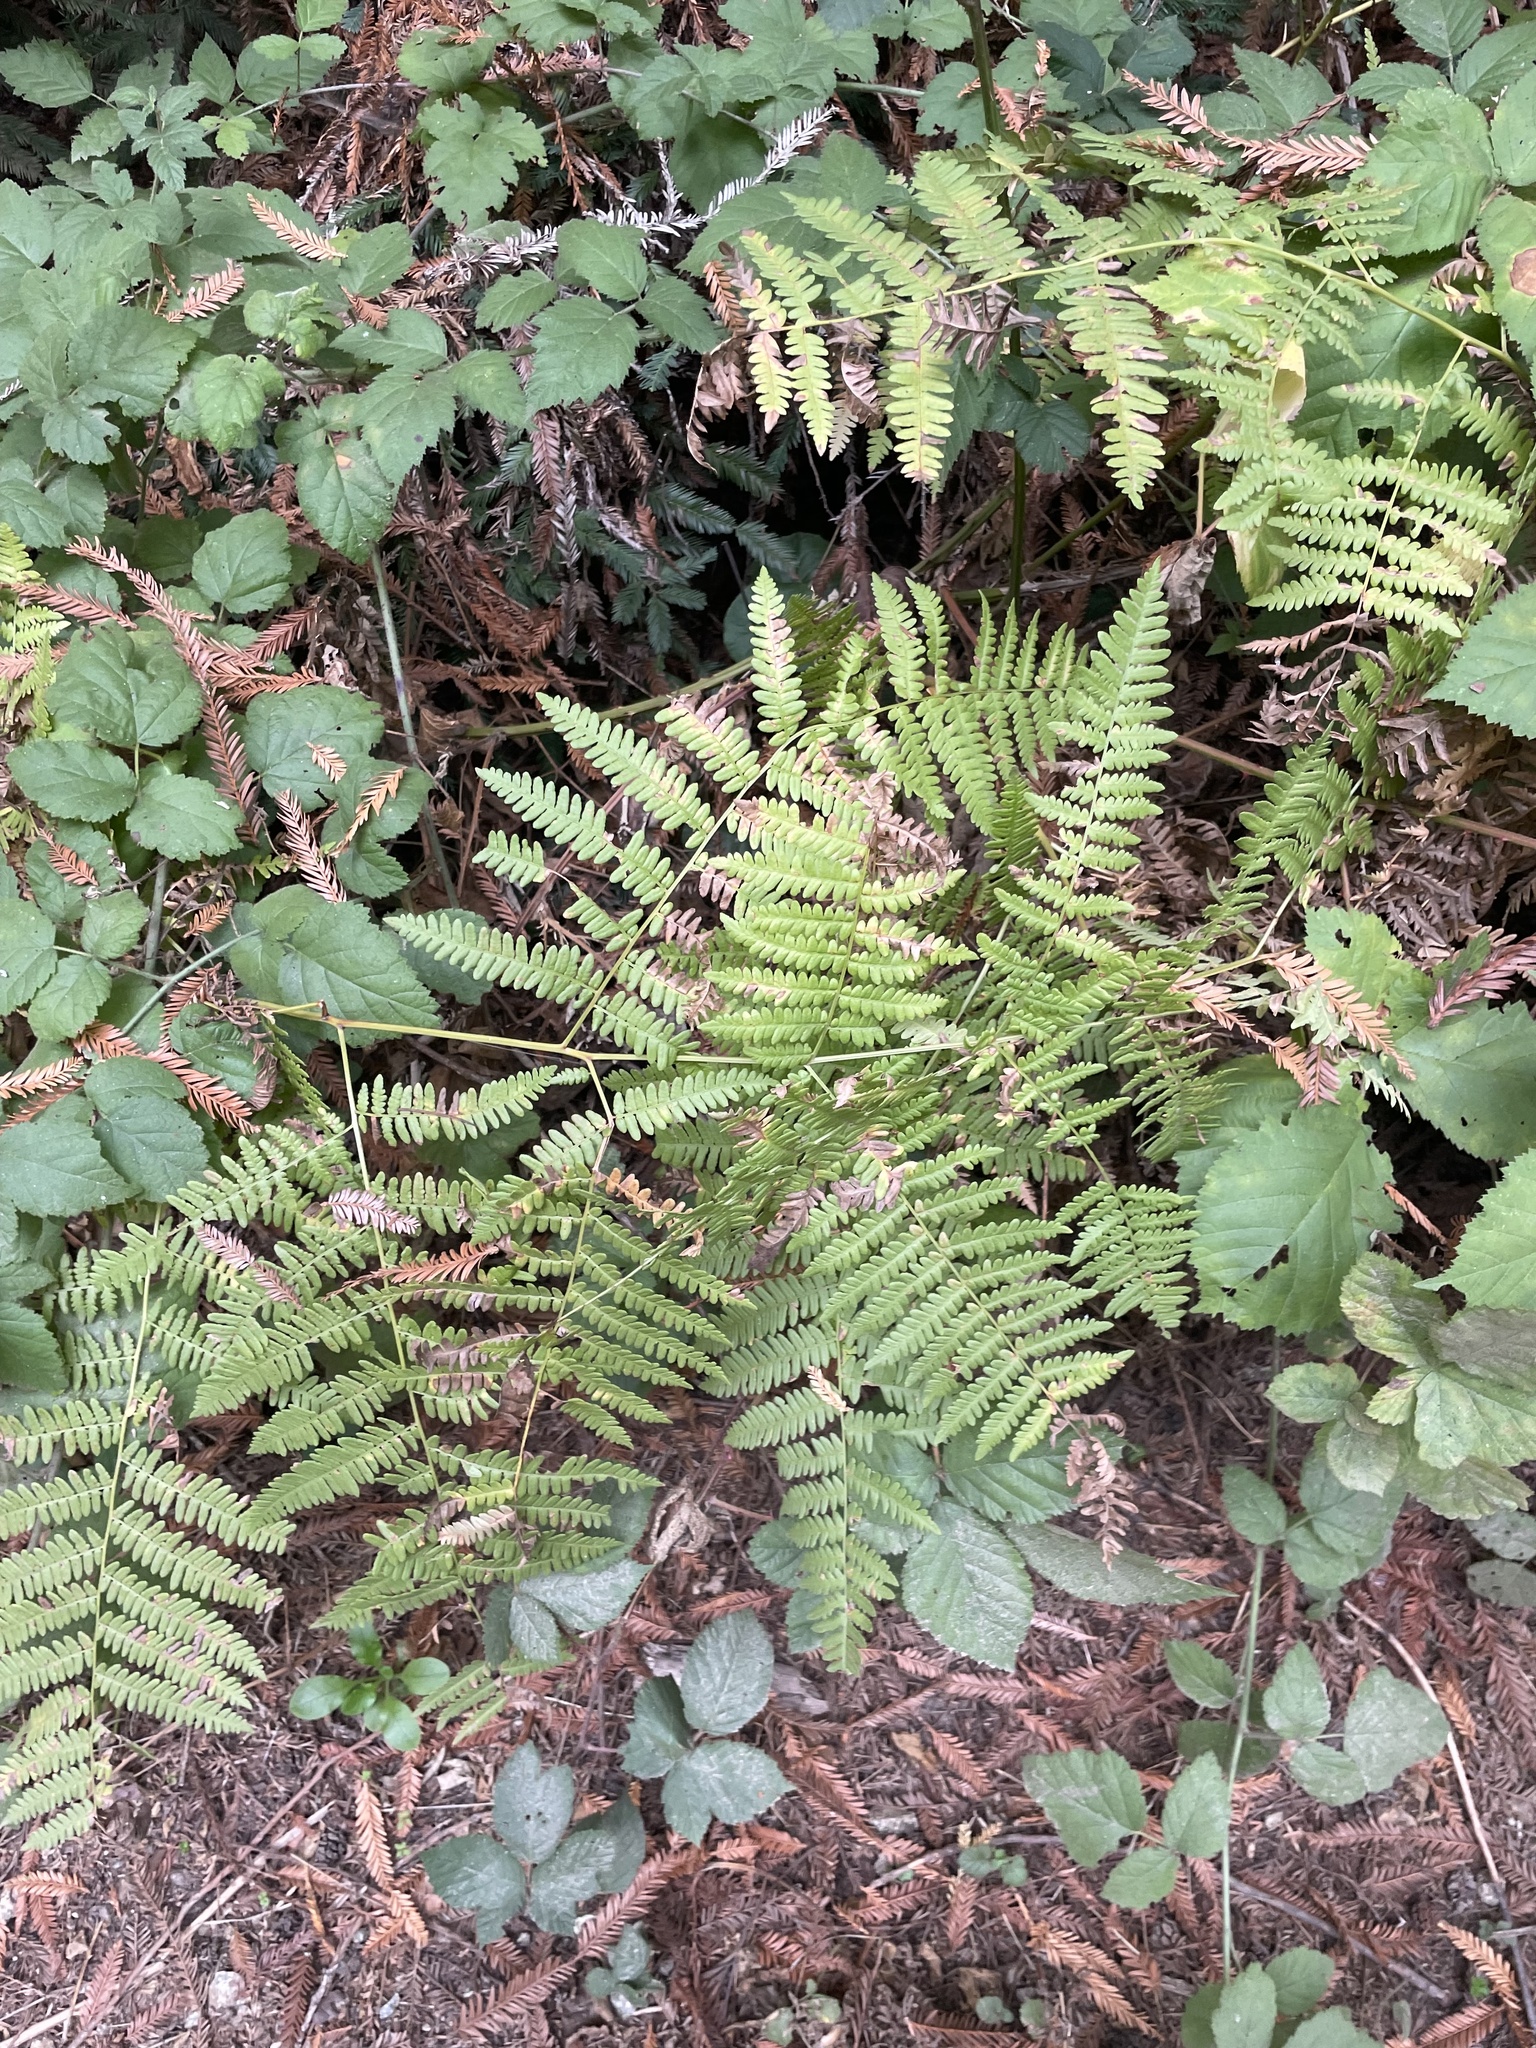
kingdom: Plantae
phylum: Tracheophyta
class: Polypodiopsida
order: Polypodiales
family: Dennstaedtiaceae
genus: Pteridium
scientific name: Pteridium aquilinum
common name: Bracken
